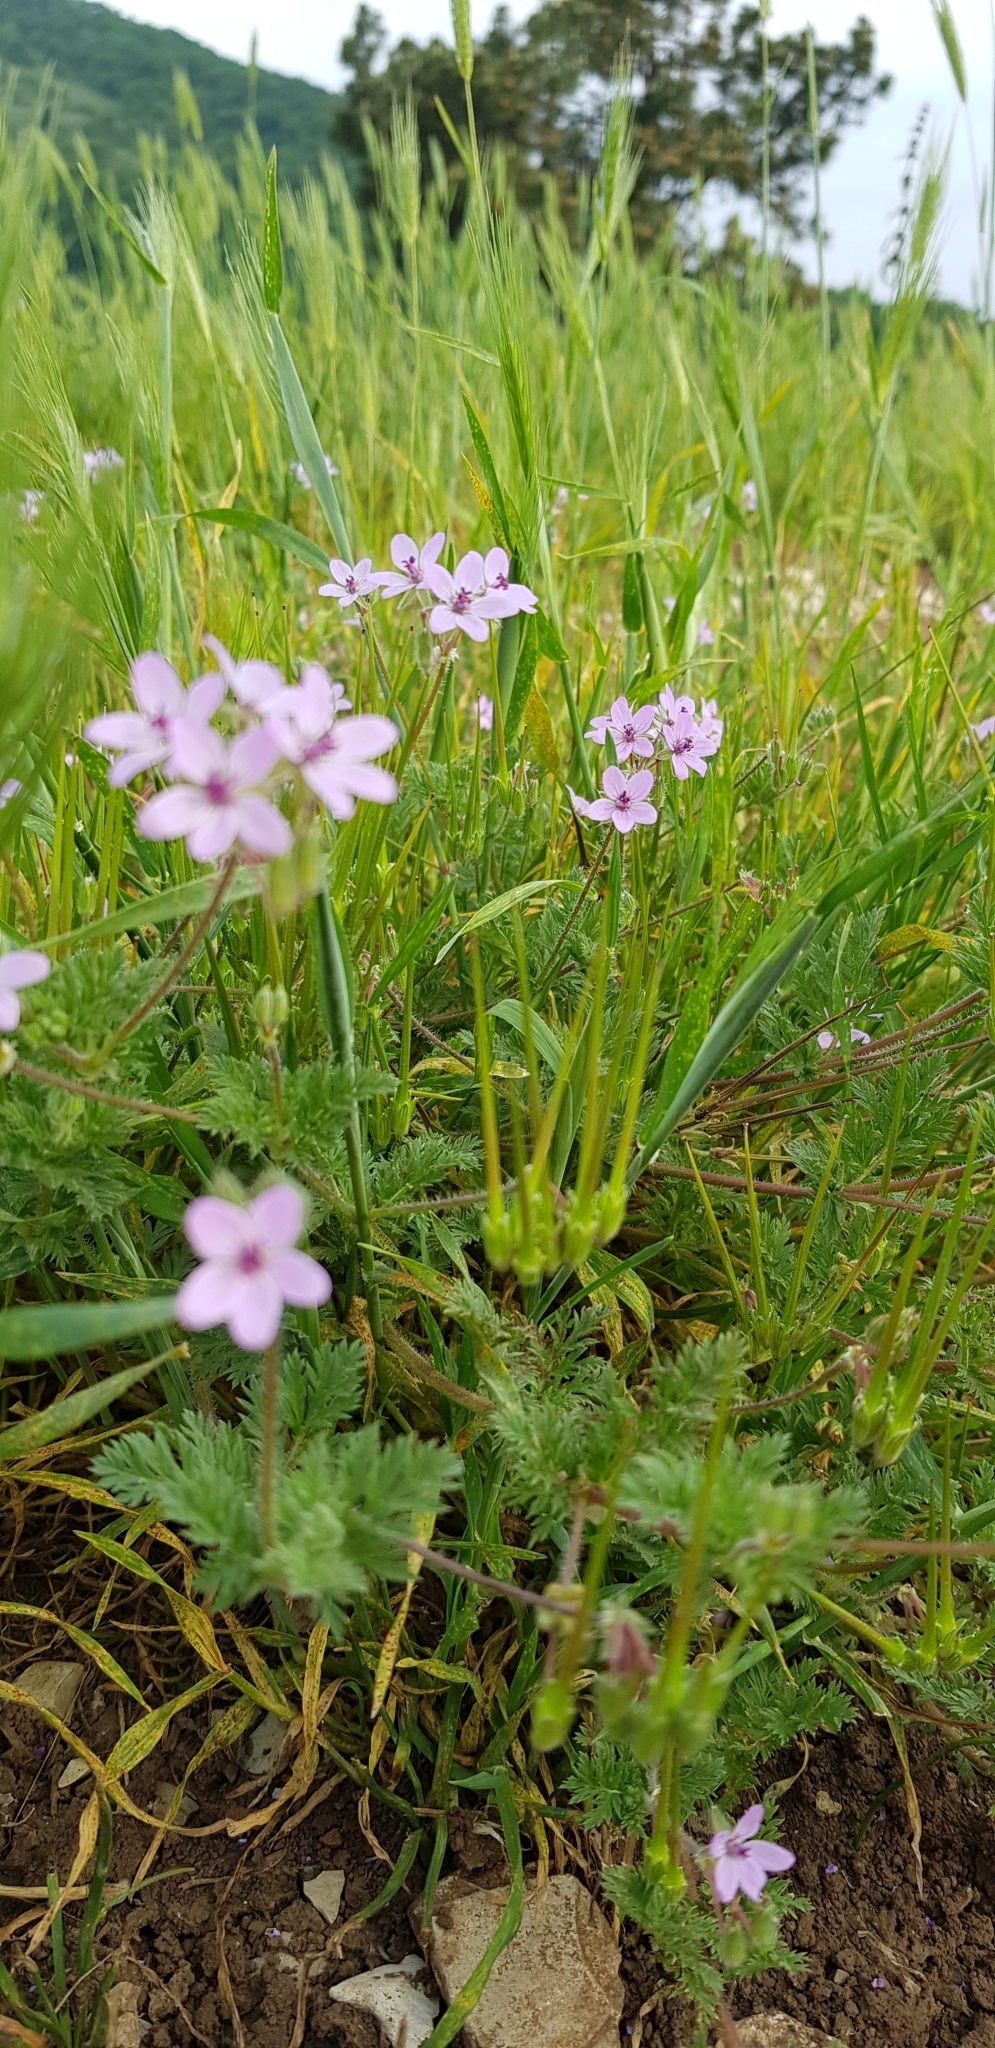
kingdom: Plantae
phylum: Tracheophyta
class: Magnoliopsida
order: Geraniales
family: Geraniaceae
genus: Erodium
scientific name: Erodium cicutarium
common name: Common stork's-bill
